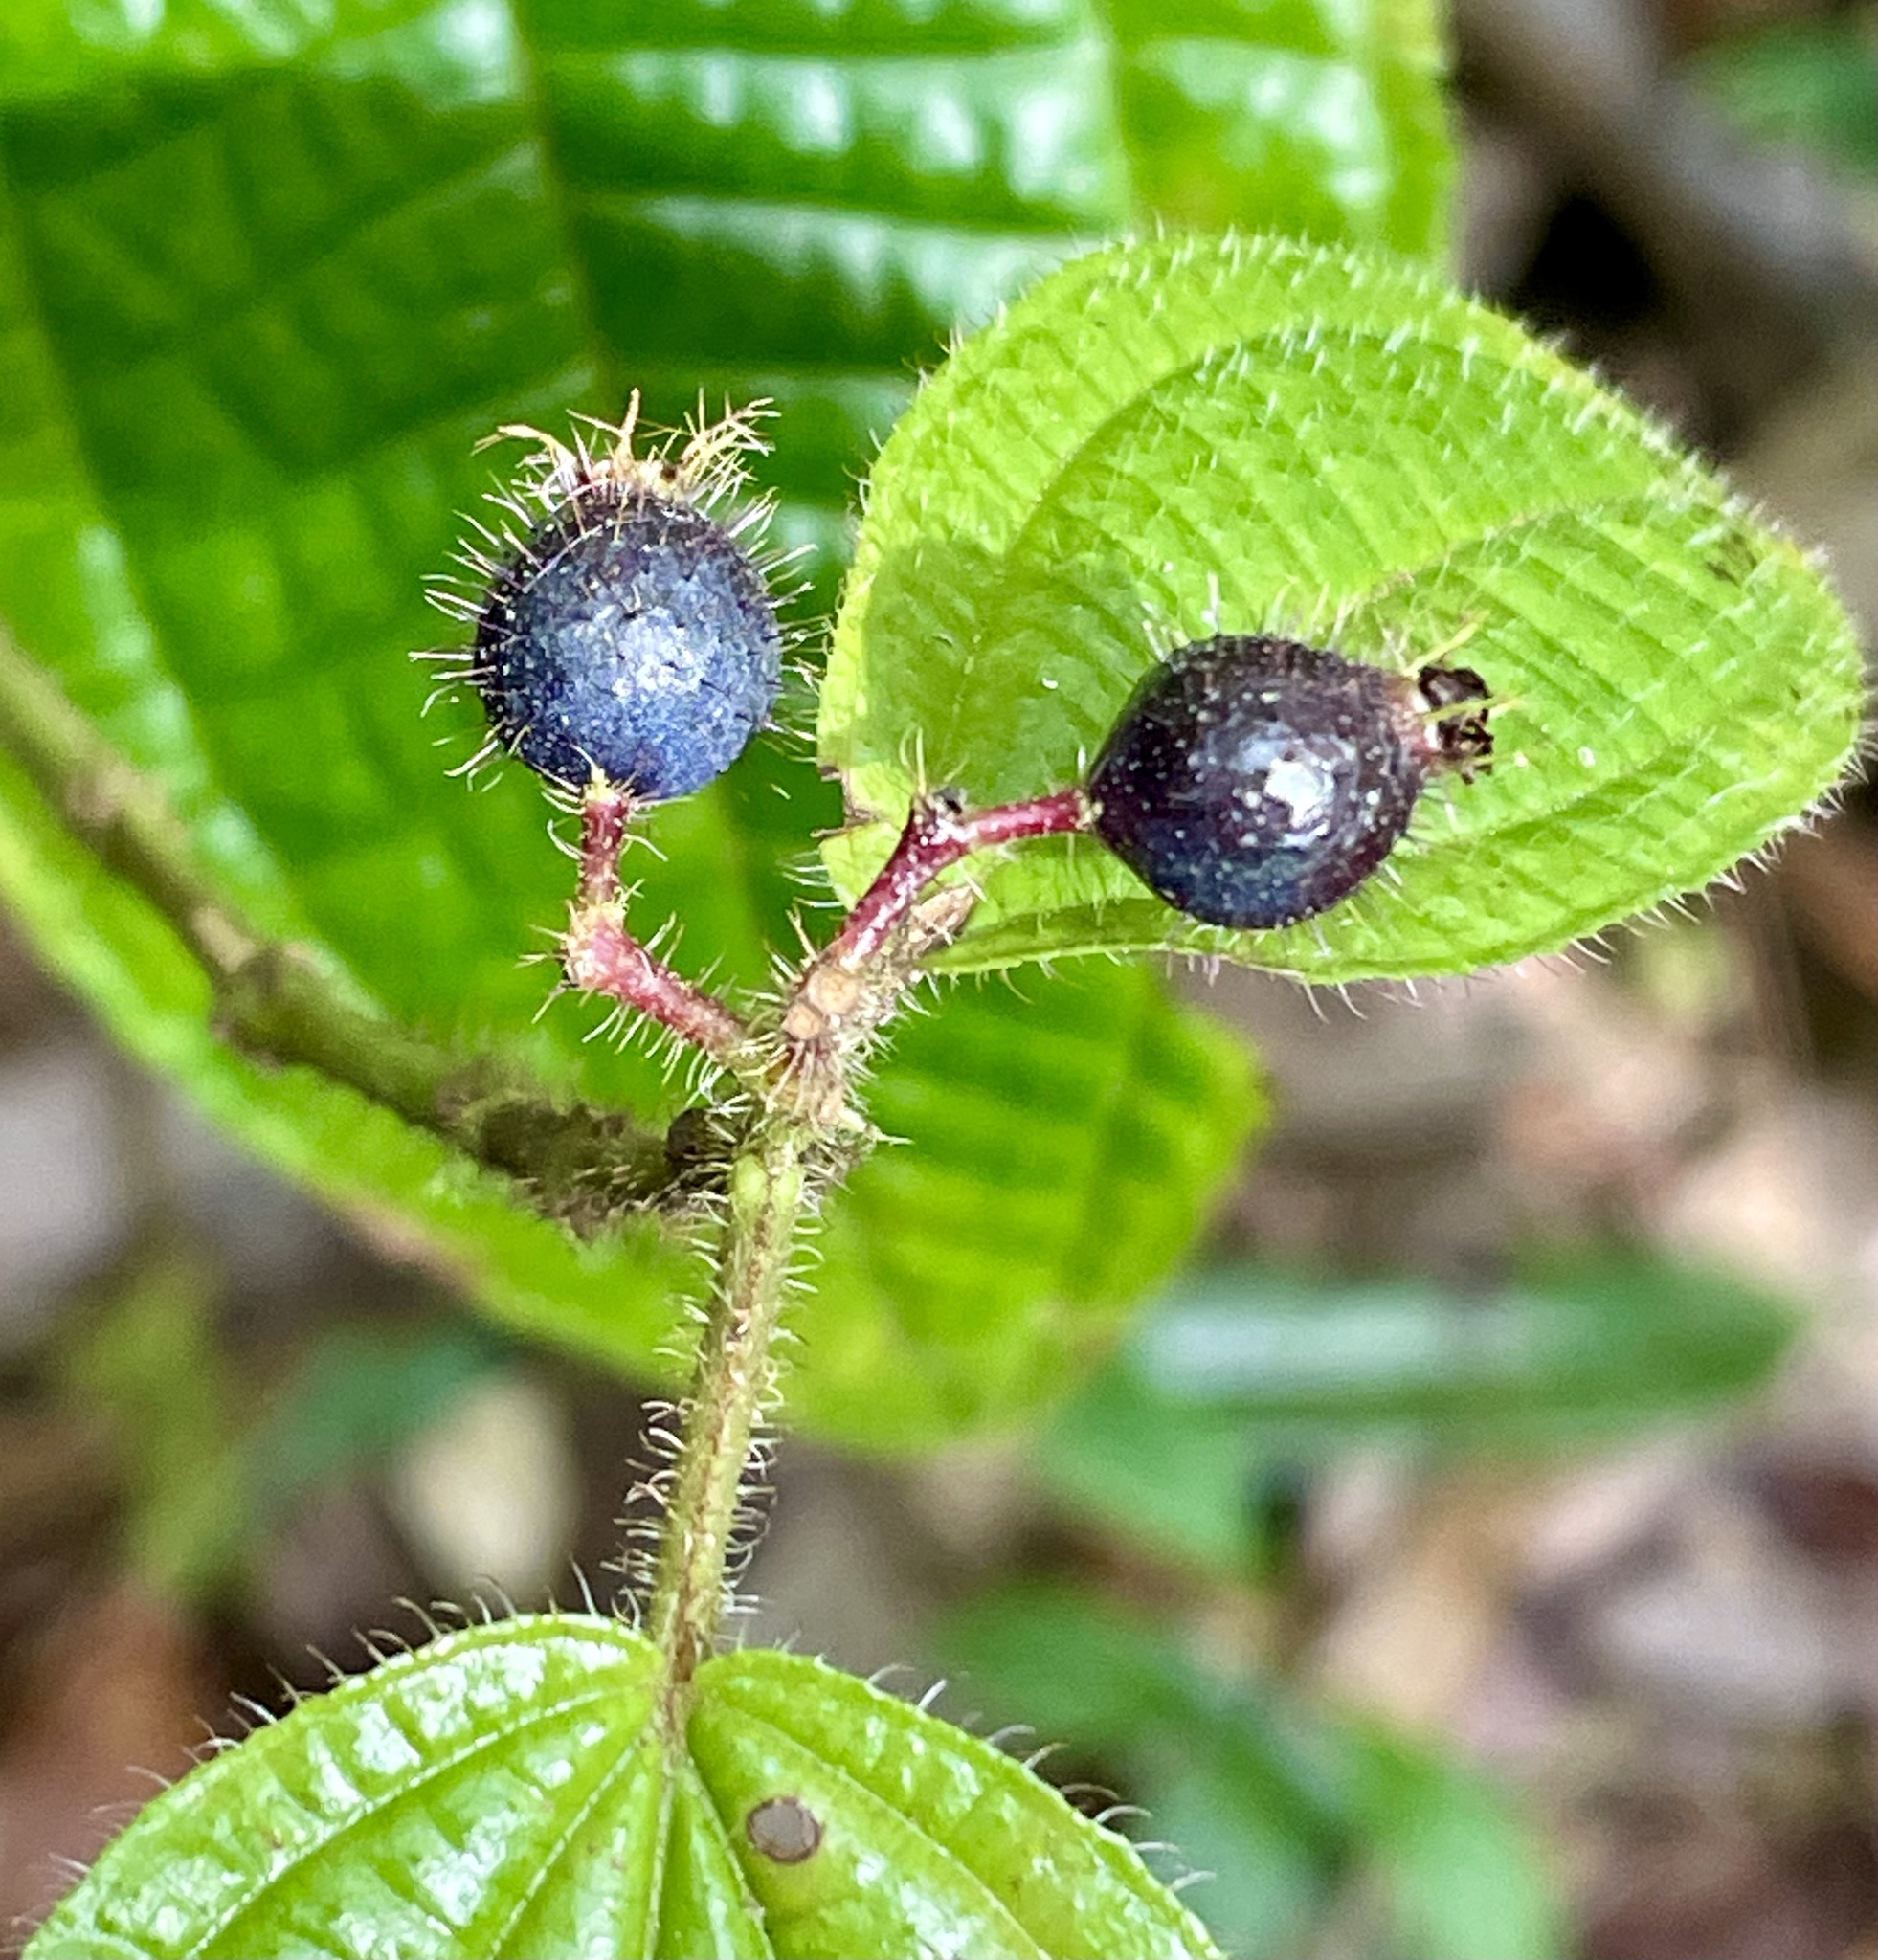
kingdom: Plantae
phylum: Tracheophyta
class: Magnoliopsida
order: Myrtales
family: Melastomataceae
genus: Miconia
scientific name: Miconia crenata
